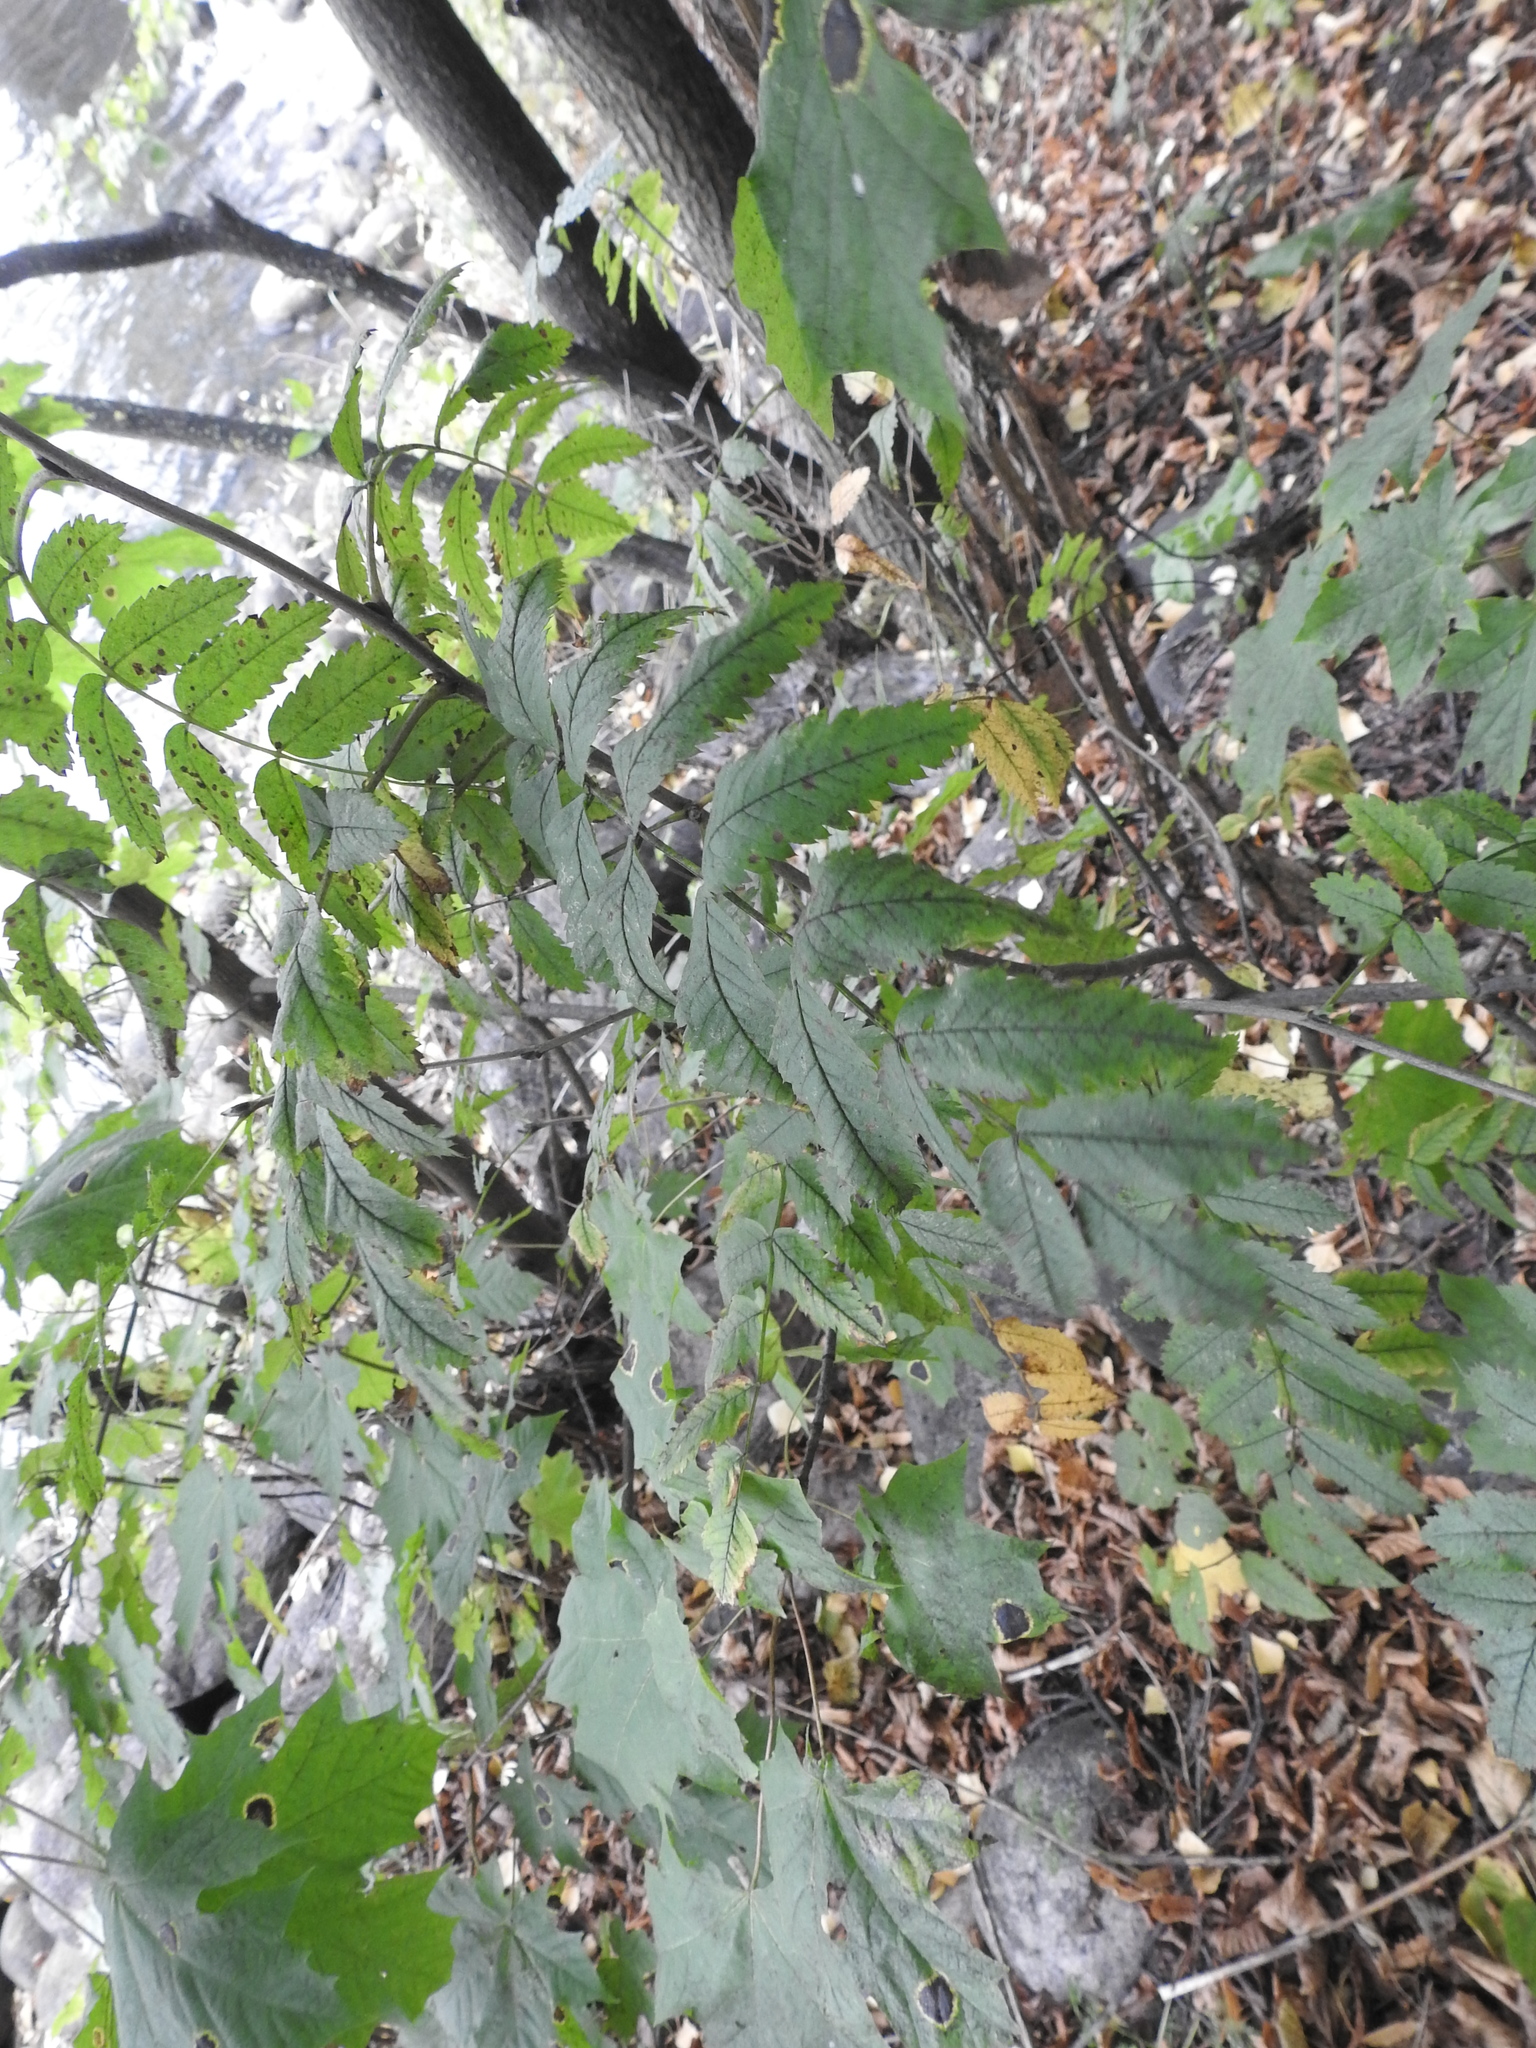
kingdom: Plantae
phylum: Tracheophyta
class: Magnoliopsida
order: Rosales
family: Rosaceae
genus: Sorbus
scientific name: Sorbus aucuparia
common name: Rowan
